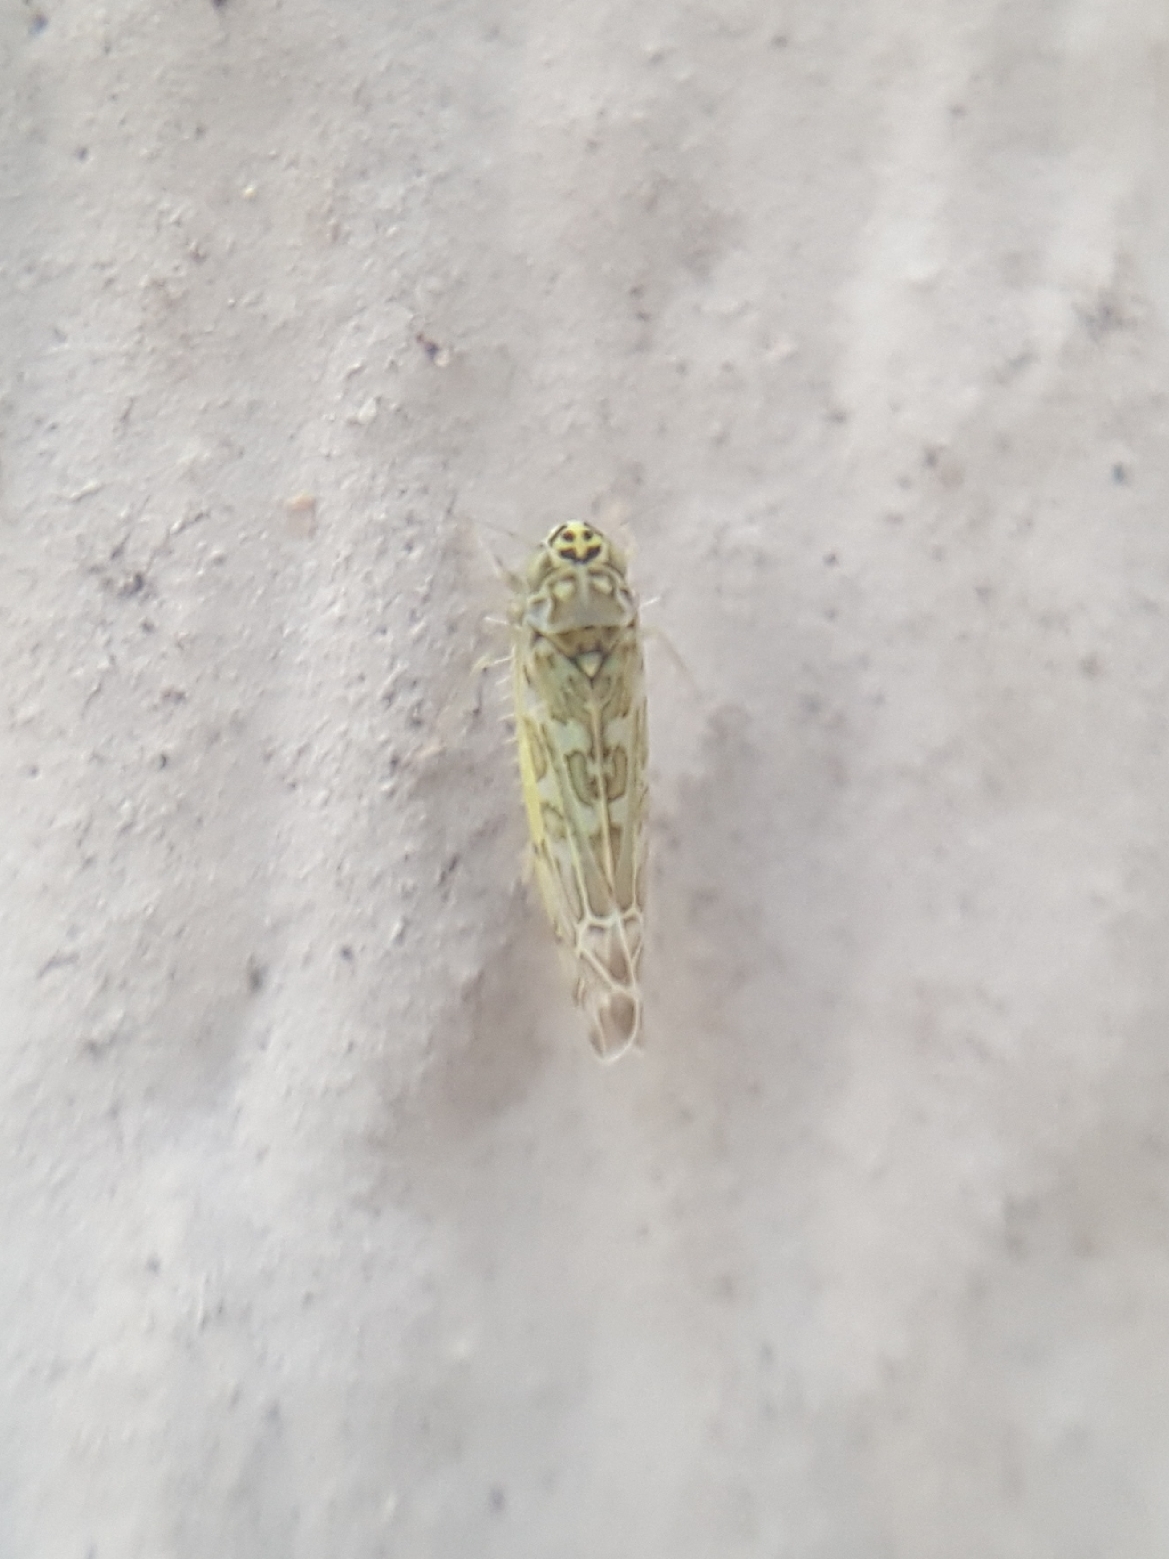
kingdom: Animalia
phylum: Arthropoda
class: Insecta
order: Hemiptera
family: Cicadellidae
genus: Eupteryx
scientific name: Eupteryx decemnotata
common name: Ligurian leafhopper
